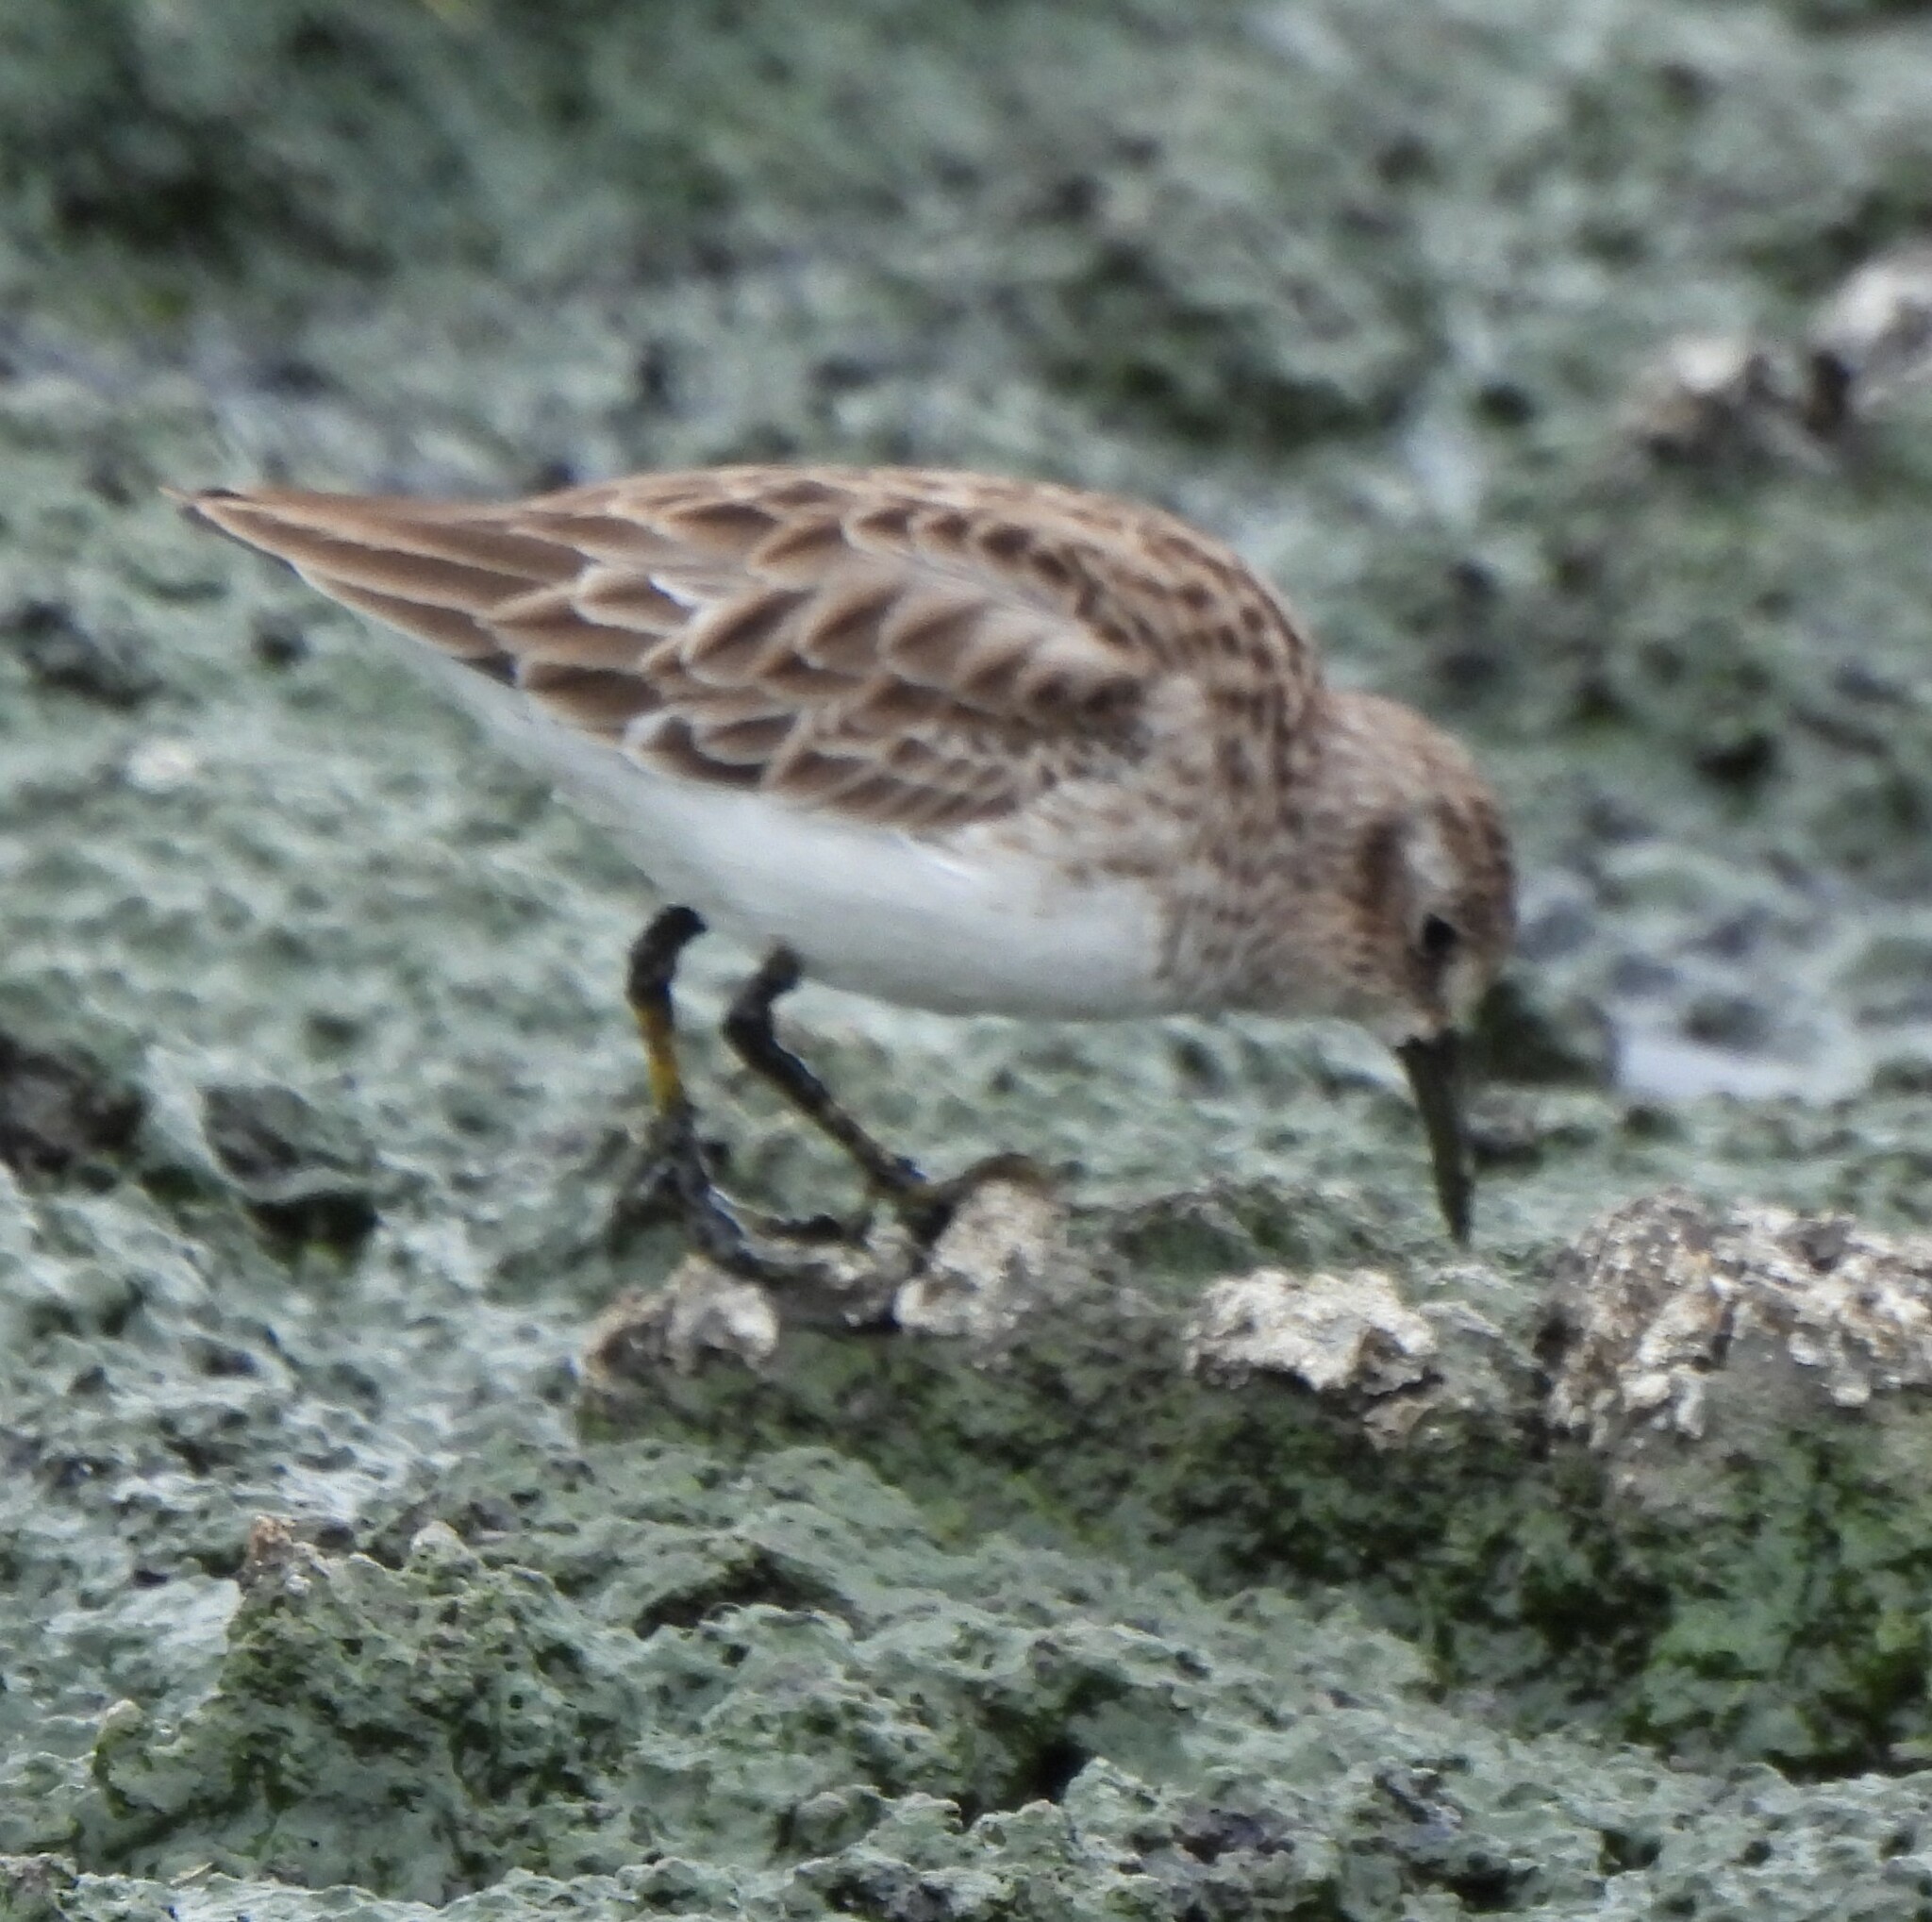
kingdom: Animalia
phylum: Chordata
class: Aves
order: Charadriiformes
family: Scolopacidae
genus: Calidris
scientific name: Calidris minutilla
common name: Least sandpiper
